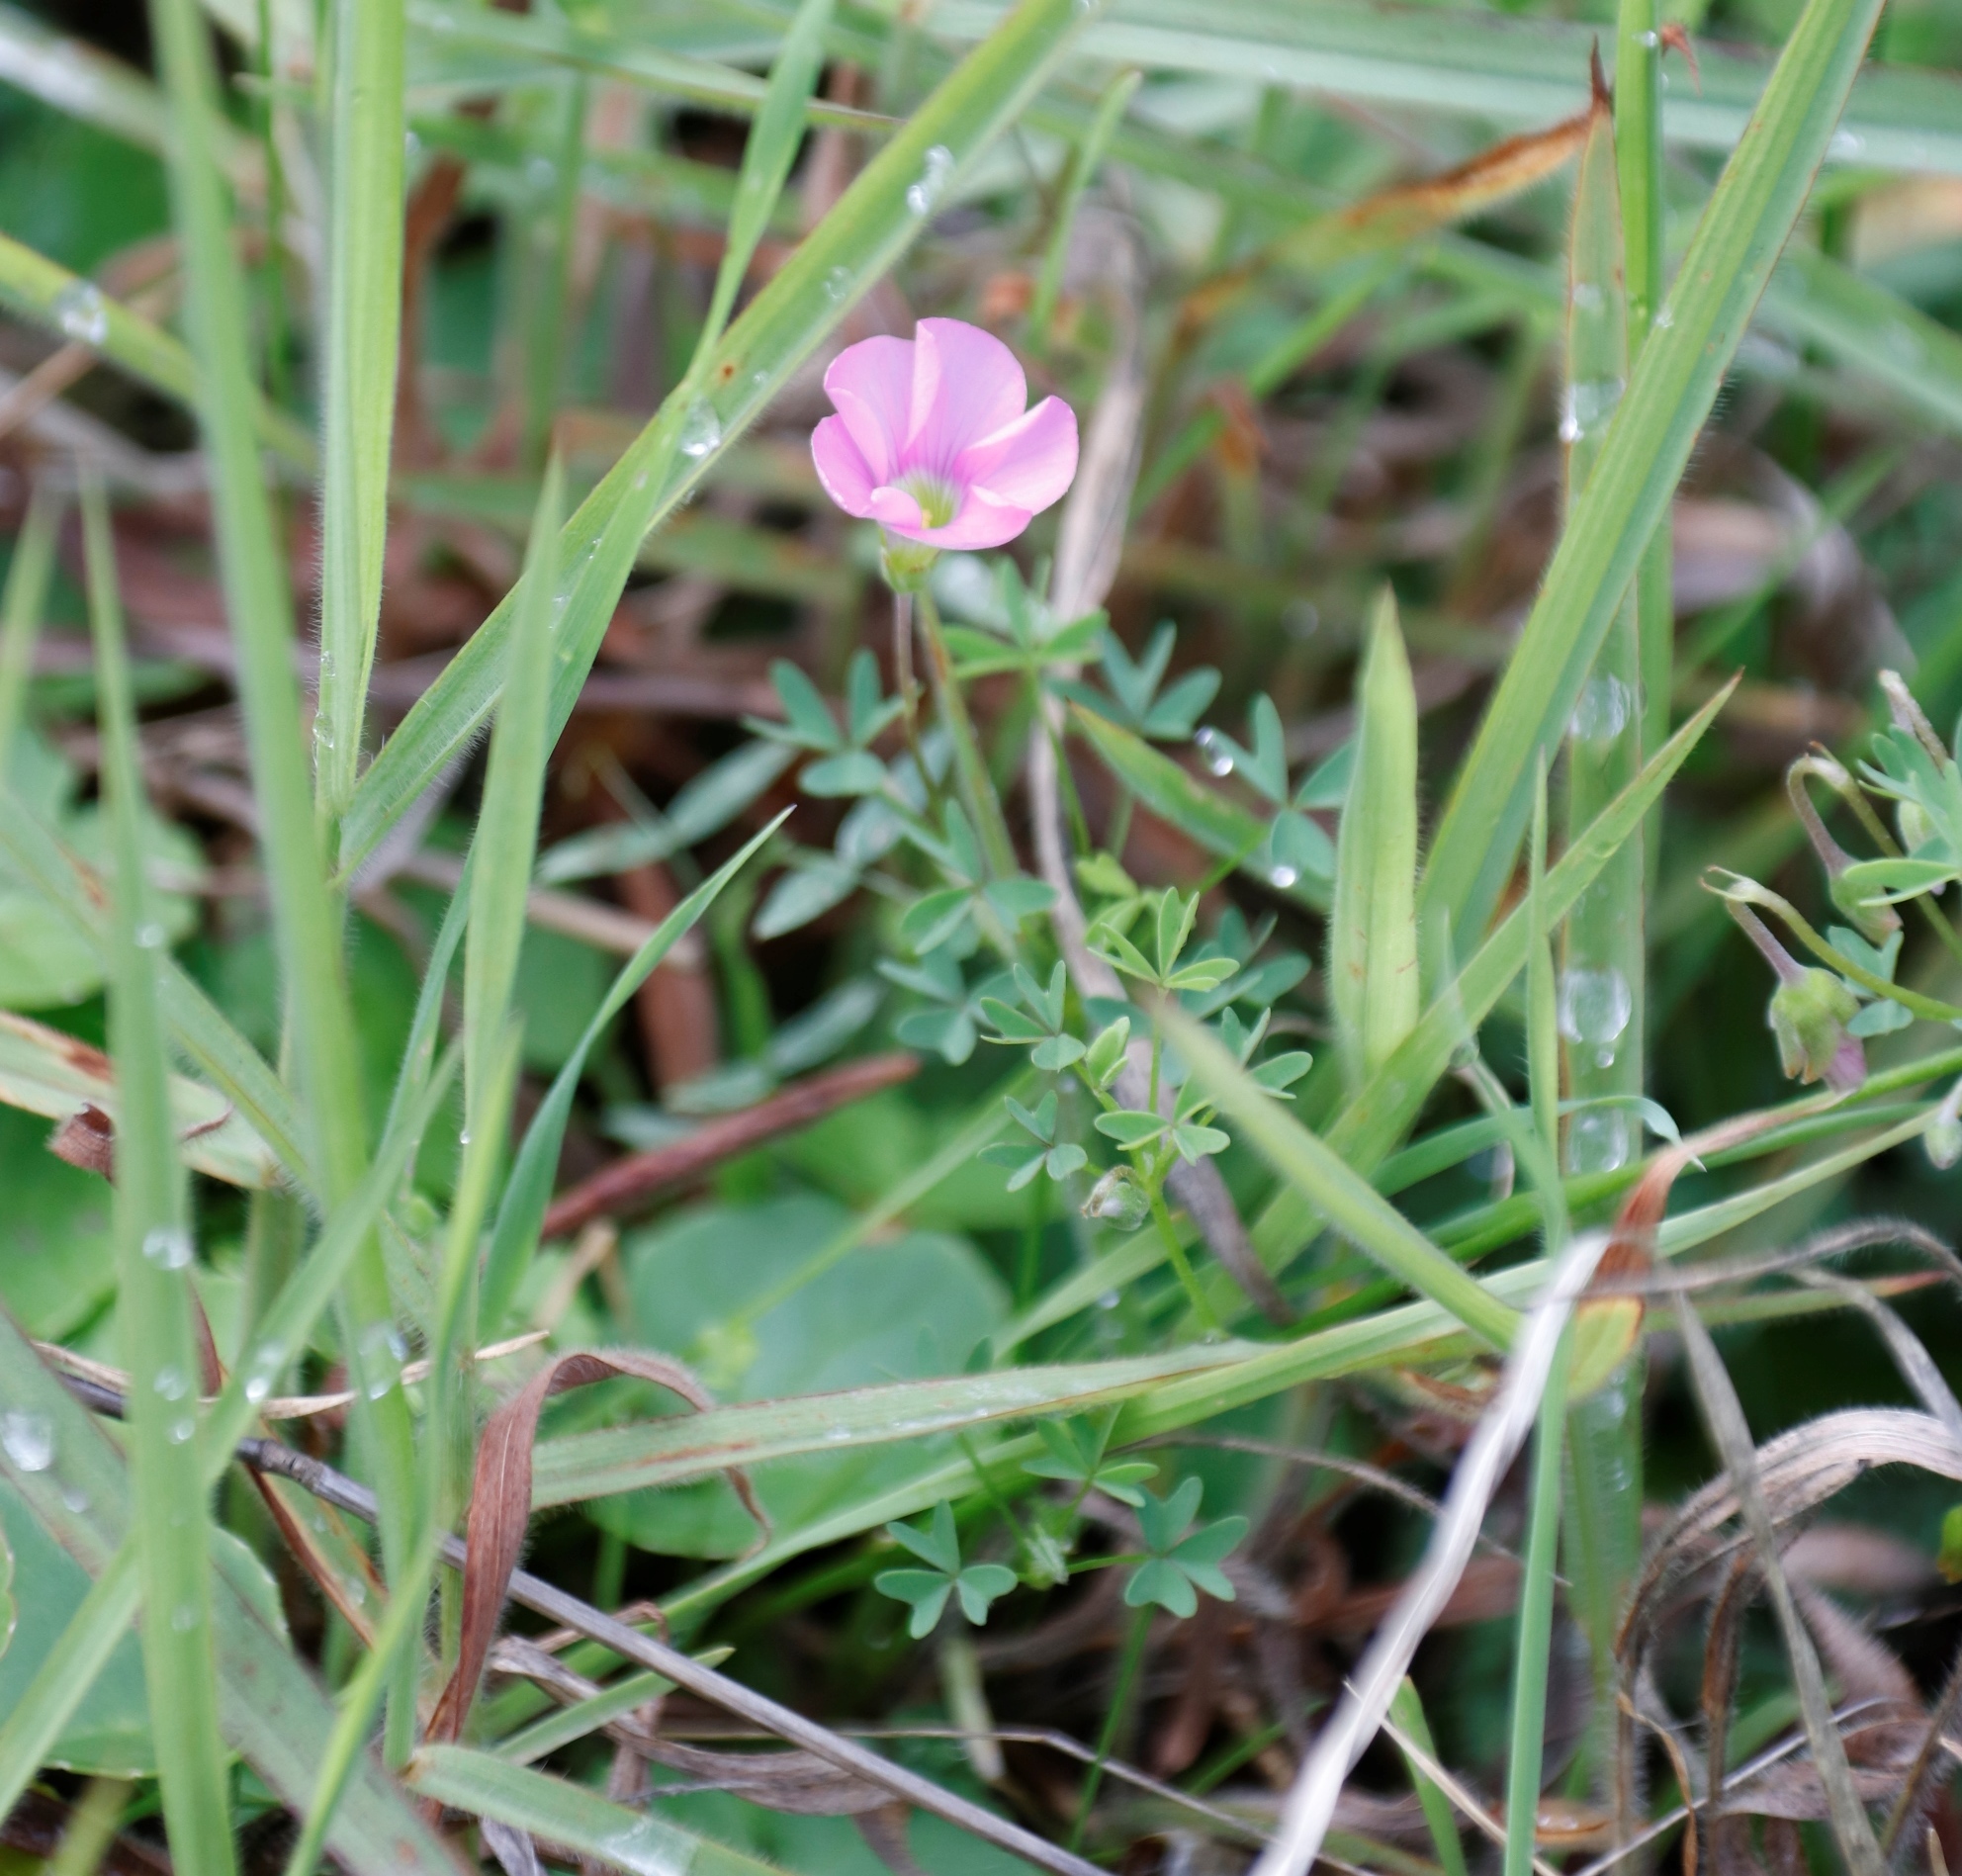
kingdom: Plantae
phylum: Tracheophyta
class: Magnoliopsida
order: Oxalidales
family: Oxalidaceae
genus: Oxalis
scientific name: Oxalis bifida
